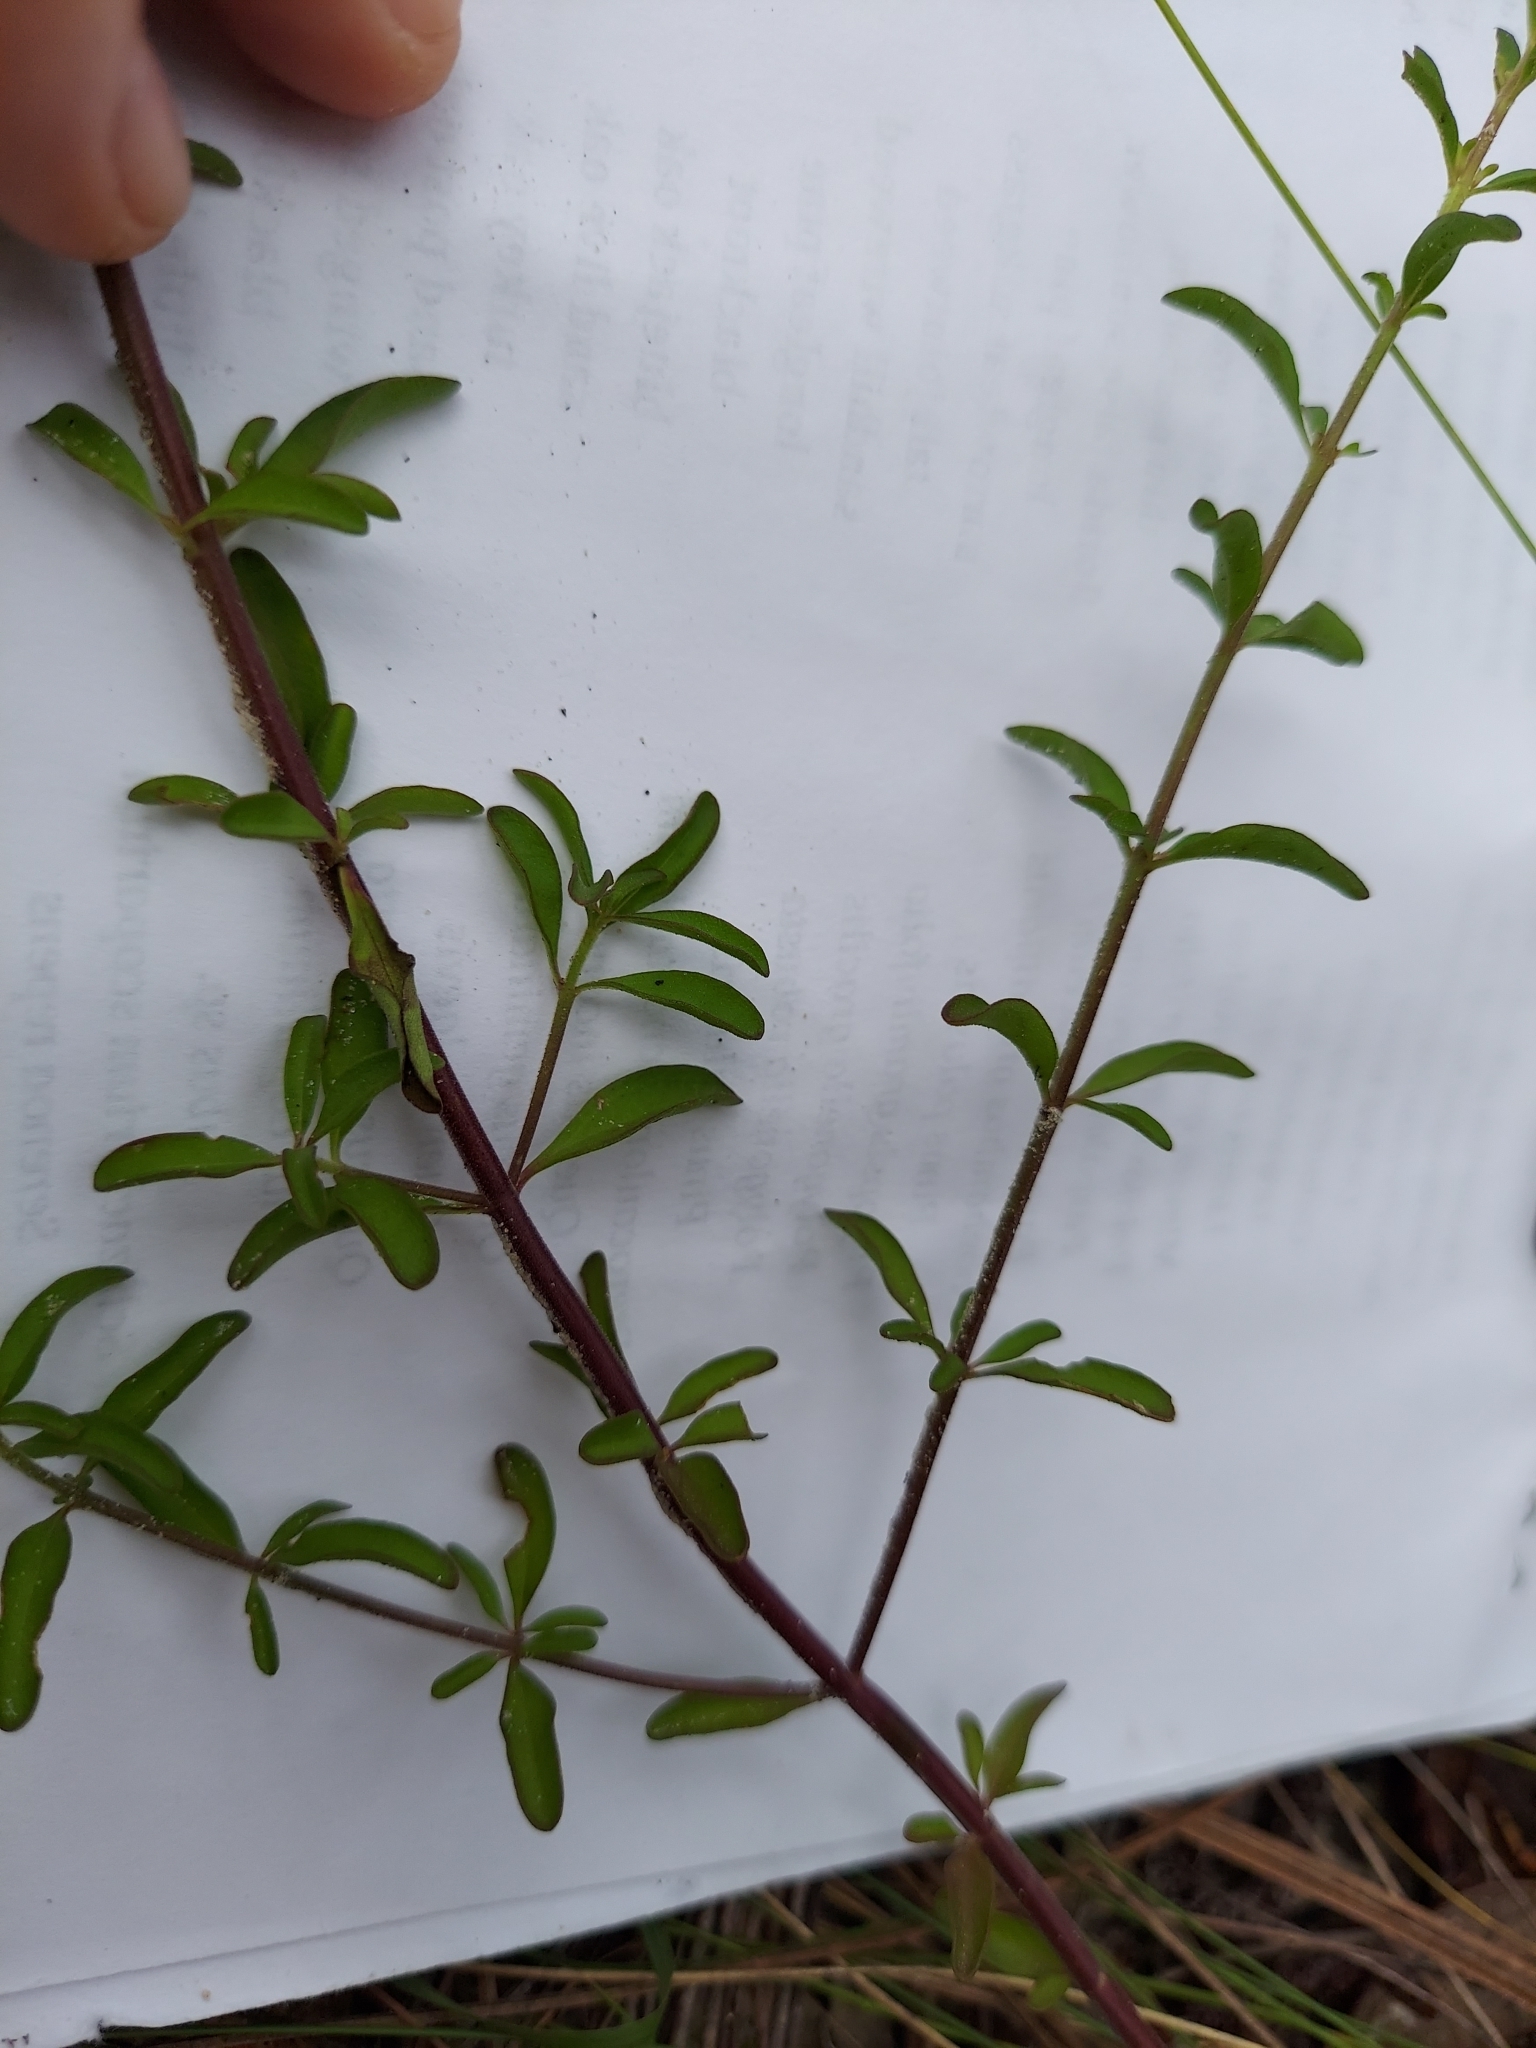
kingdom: Plantae
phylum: Tracheophyta
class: Magnoliopsida
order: Lamiales
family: Lamiaceae
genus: Trichostema
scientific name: Trichostema microphyllum
